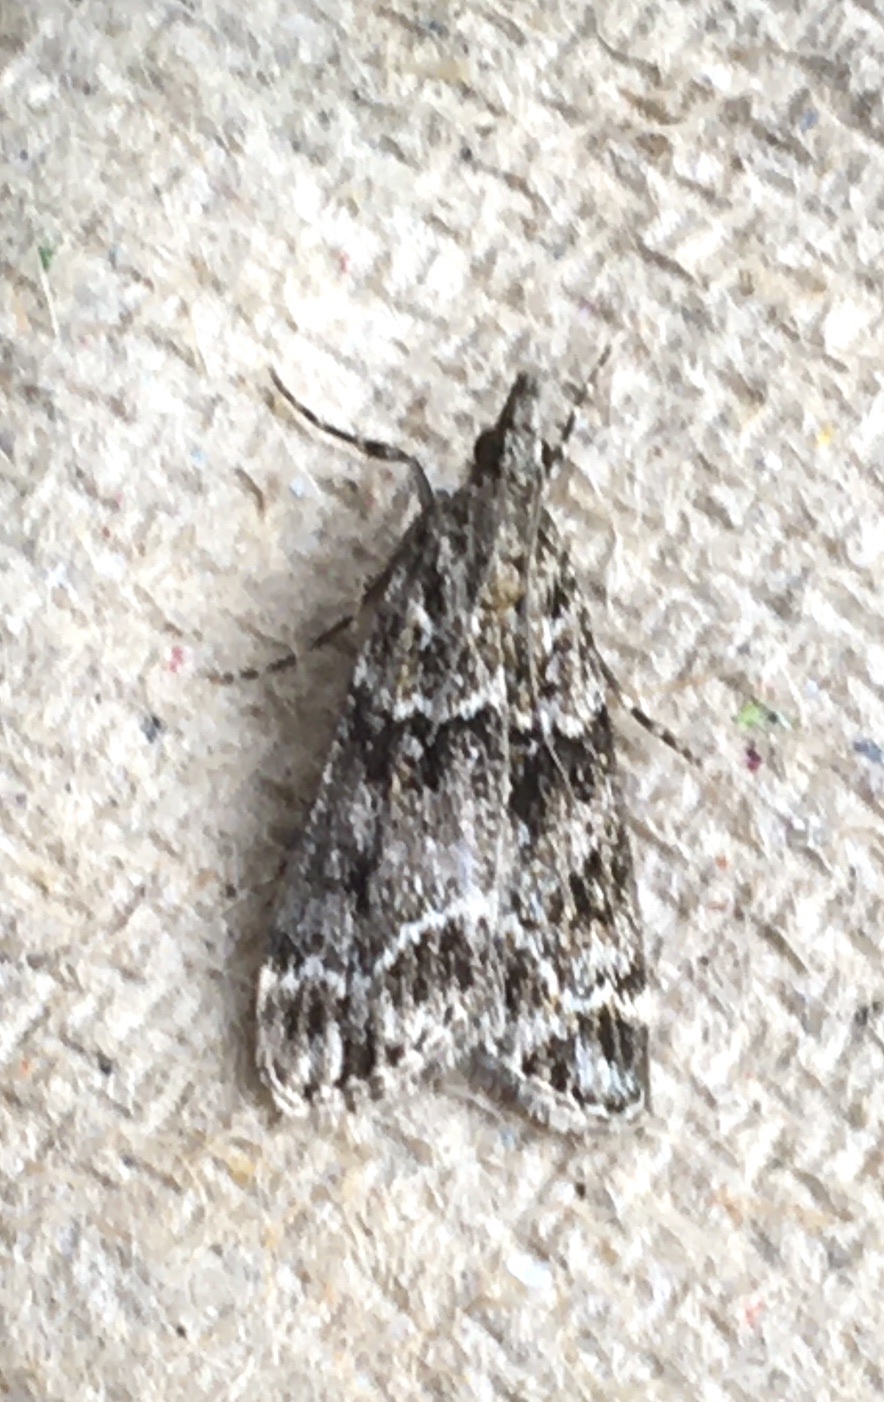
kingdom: Animalia
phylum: Arthropoda
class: Insecta
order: Lepidoptera
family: Crambidae
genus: Eudonia
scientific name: Eudonia mercurella
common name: Small grey
